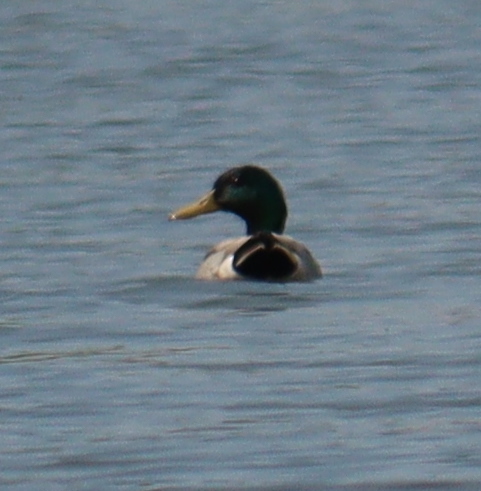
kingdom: Animalia
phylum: Chordata
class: Aves
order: Anseriformes
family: Anatidae
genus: Anas
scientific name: Anas platyrhynchos
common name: Mallard
